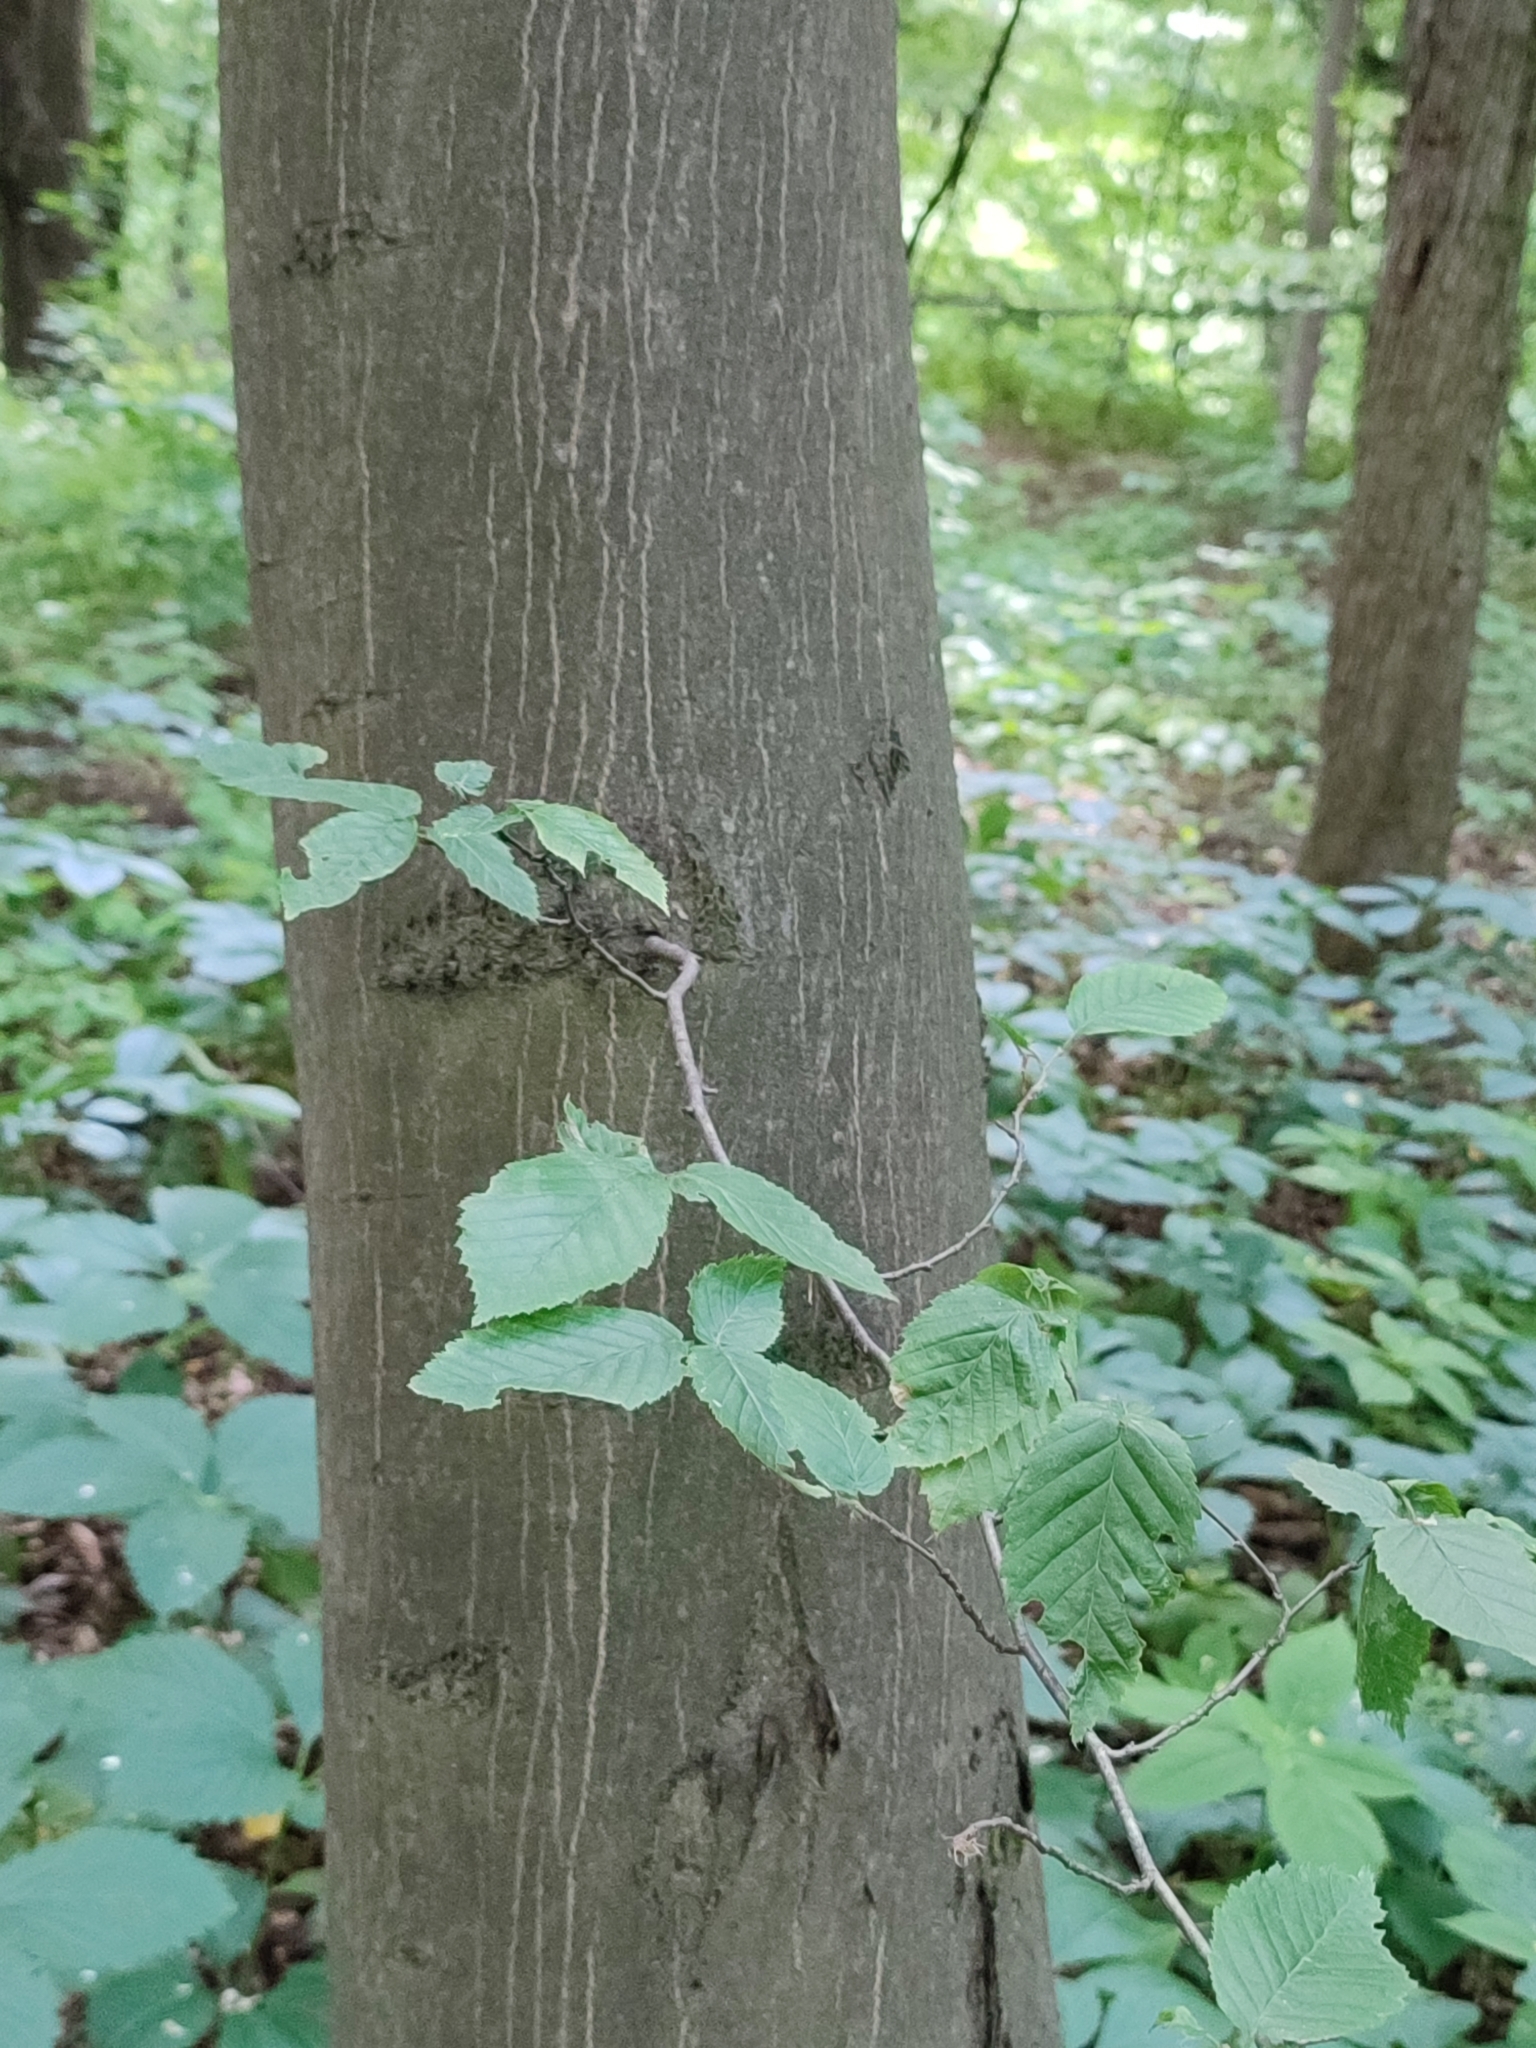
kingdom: Plantae
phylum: Tracheophyta
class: Magnoliopsida
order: Fagales
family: Betulaceae
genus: Carpinus
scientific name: Carpinus betulus
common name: Hornbeam
